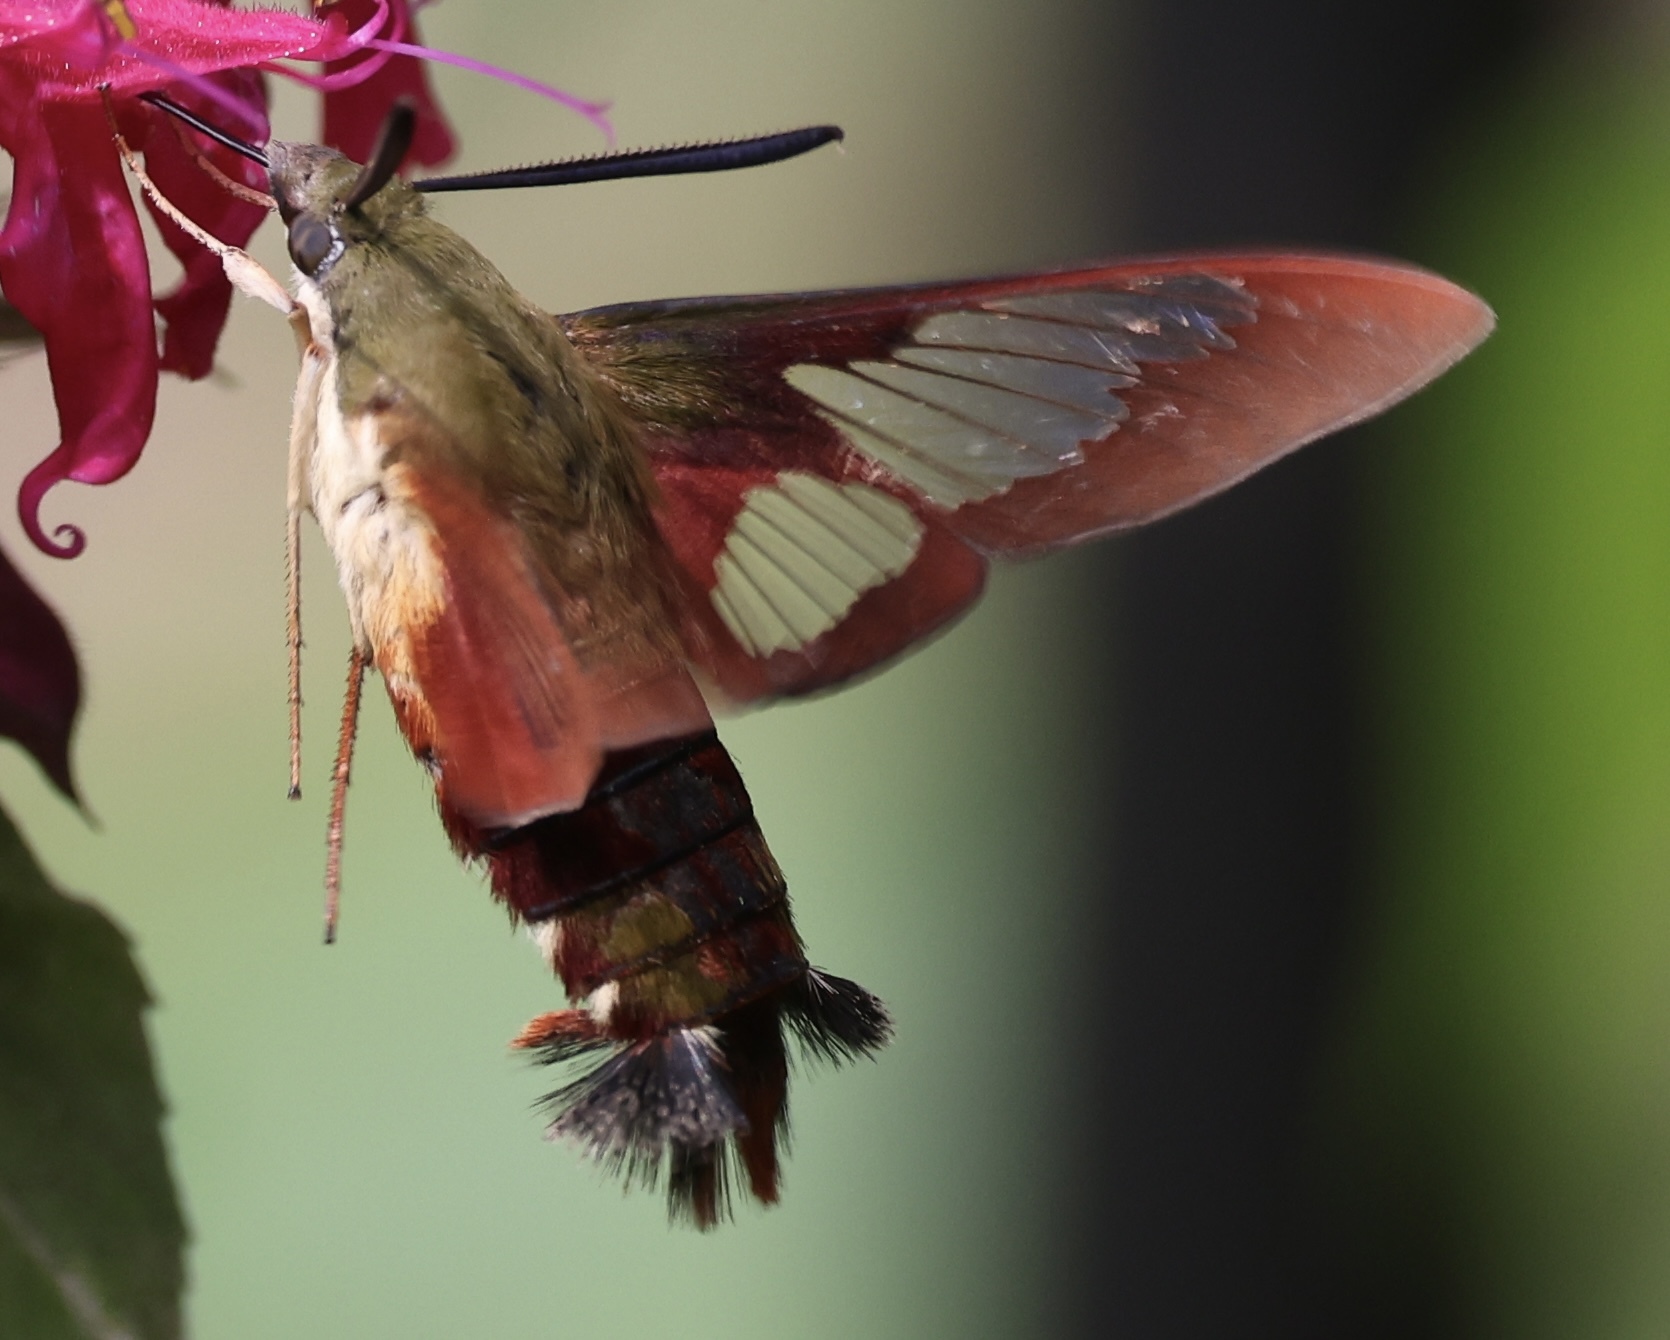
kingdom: Animalia
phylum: Arthropoda
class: Insecta
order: Lepidoptera
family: Sphingidae
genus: Hemaris
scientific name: Hemaris thysbe
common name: Common clear-wing
